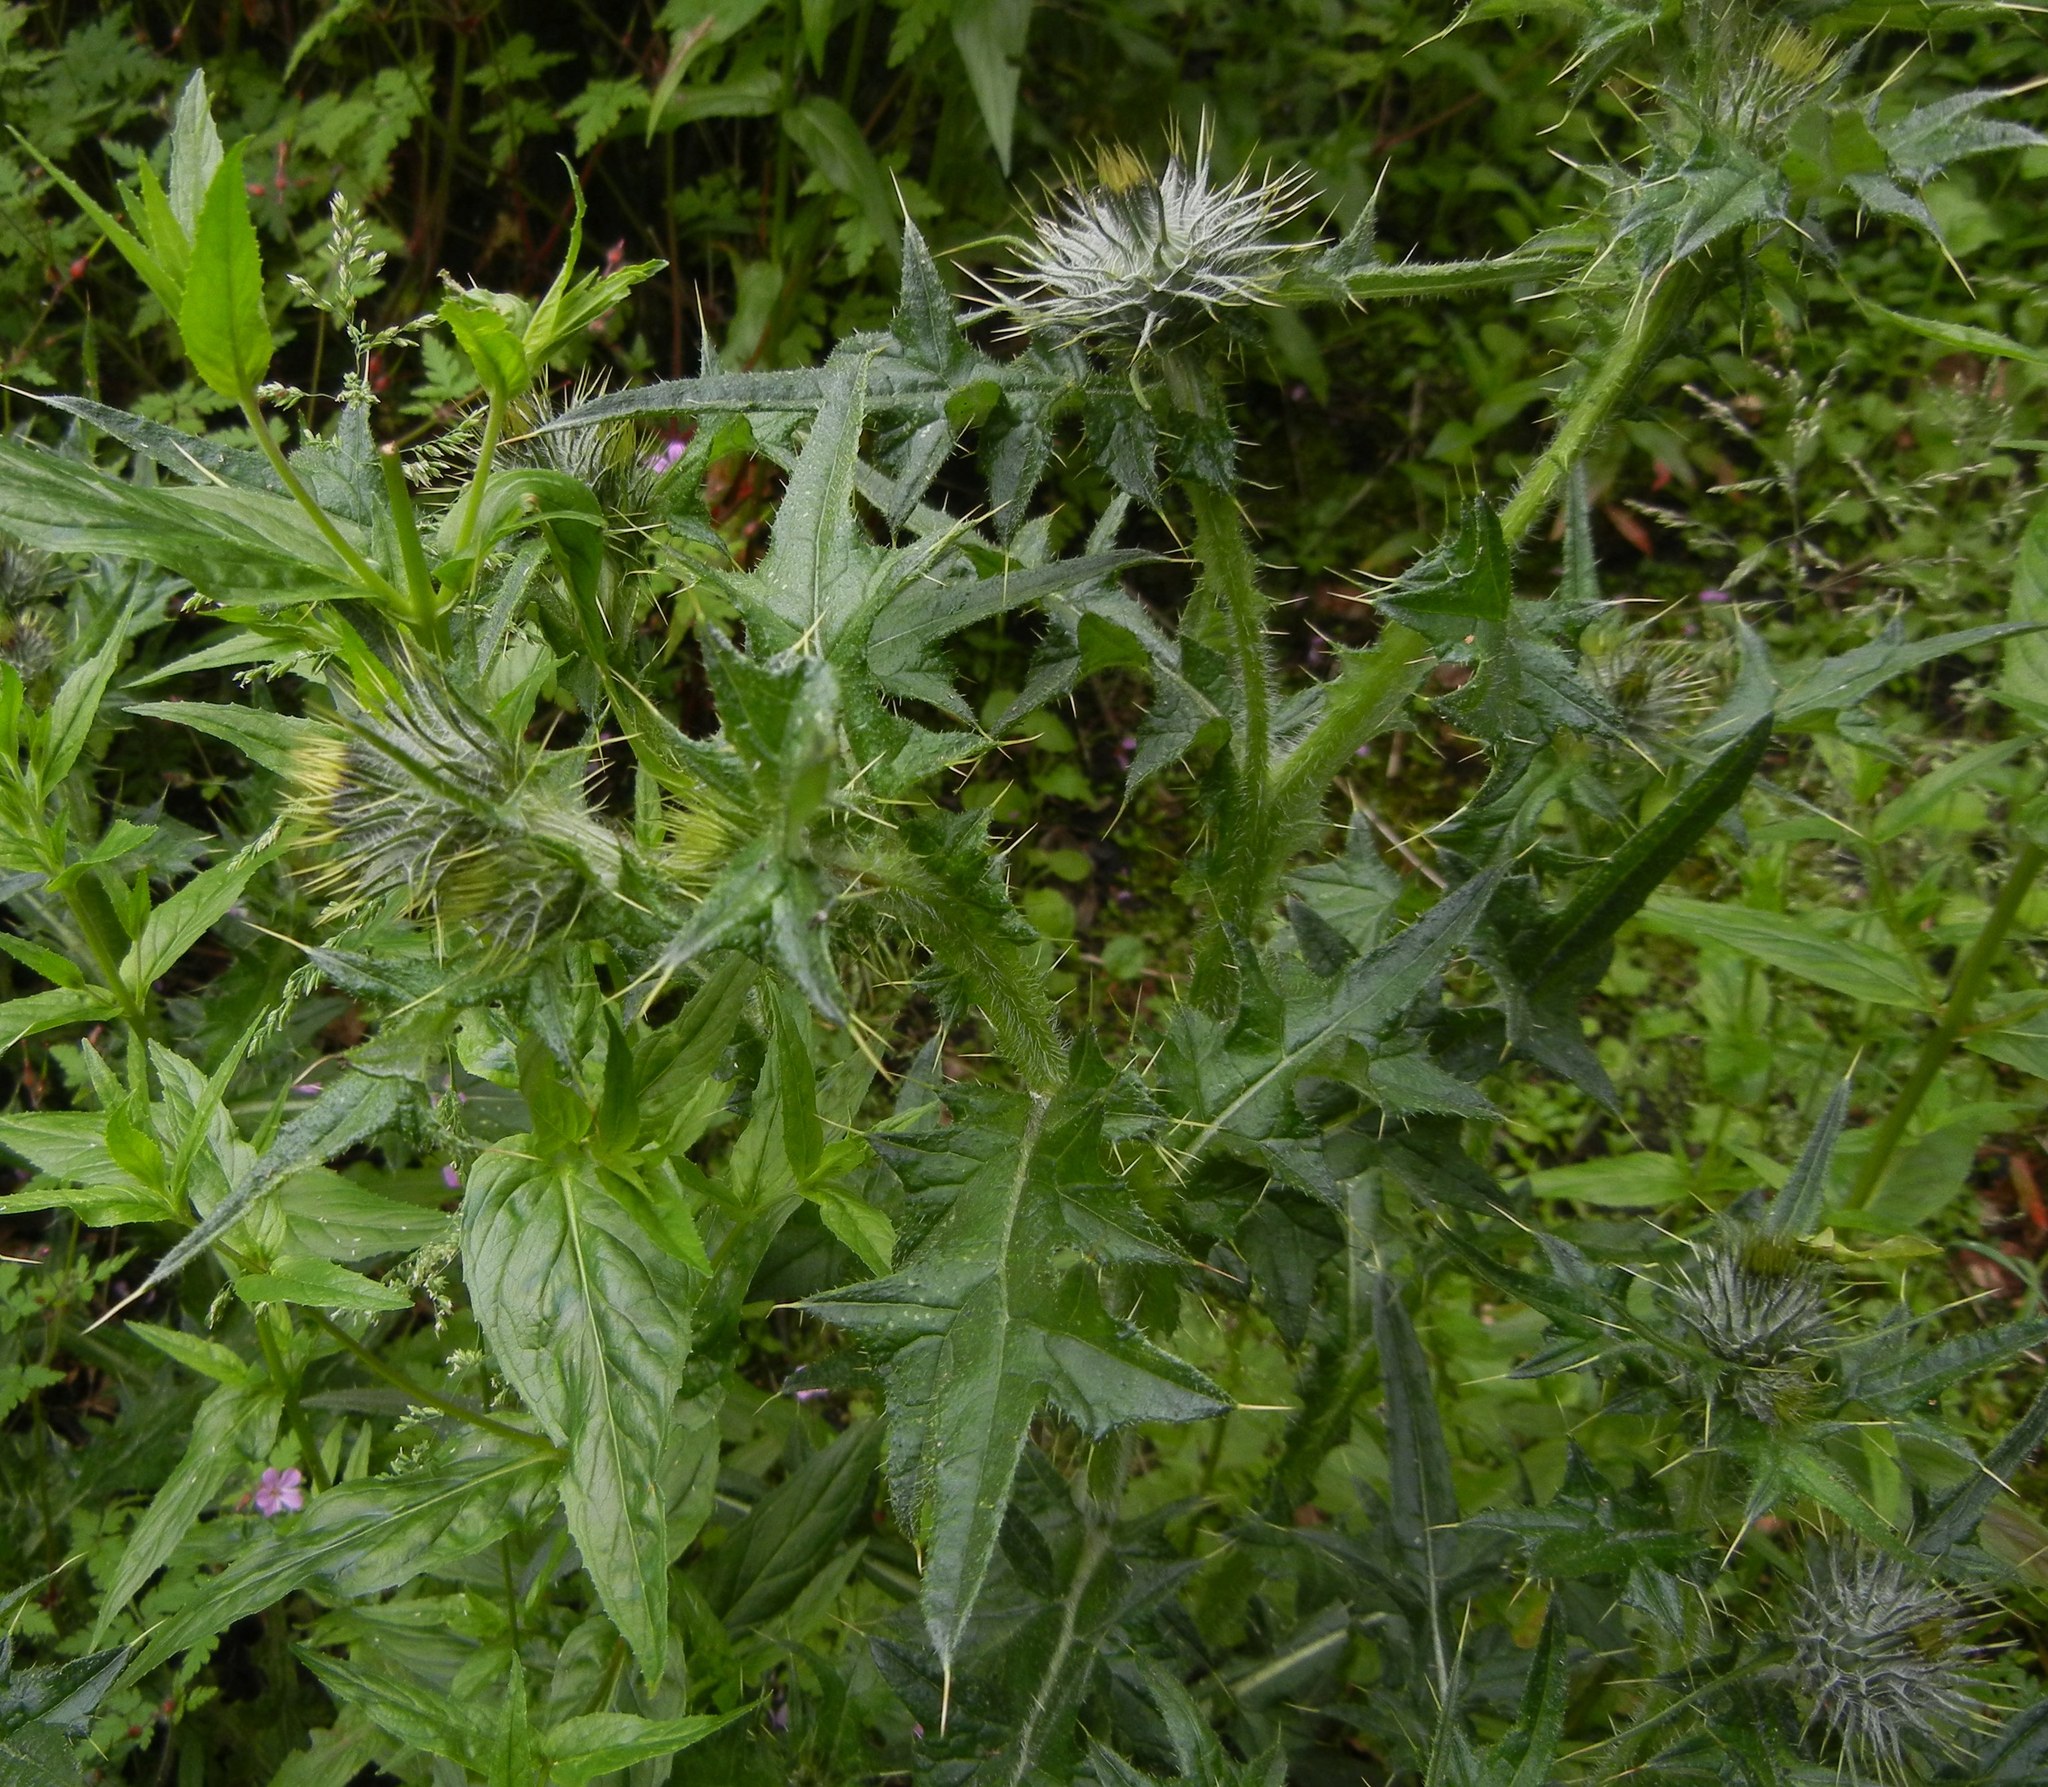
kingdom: Plantae
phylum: Tracheophyta
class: Magnoliopsida
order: Asterales
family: Asteraceae
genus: Cirsium
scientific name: Cirsium vulgare
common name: Bull thistle
